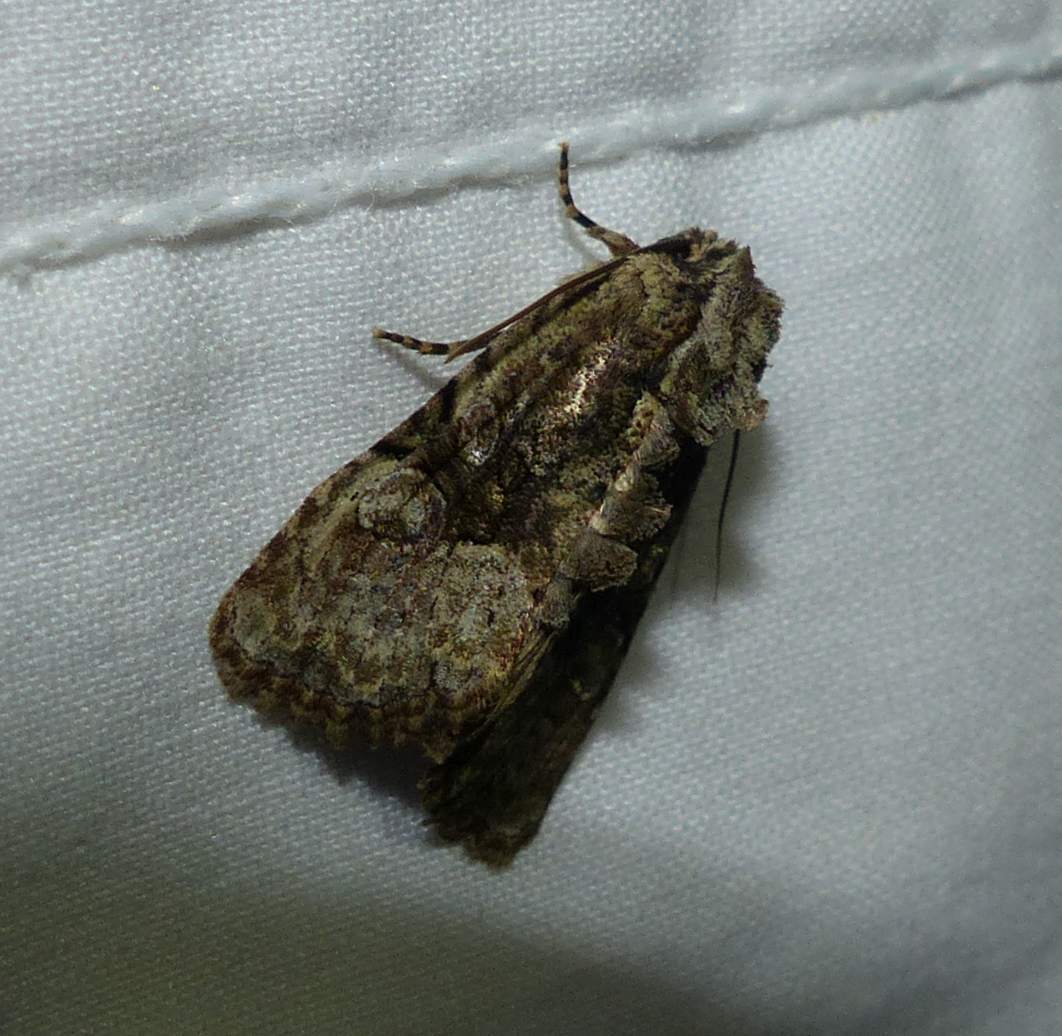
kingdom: Animalia
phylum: Arthropoda
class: Insecta
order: Lepidoptera
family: Noctuidae
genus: Oligia
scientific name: Oligia modica
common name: Black-banded brocade
